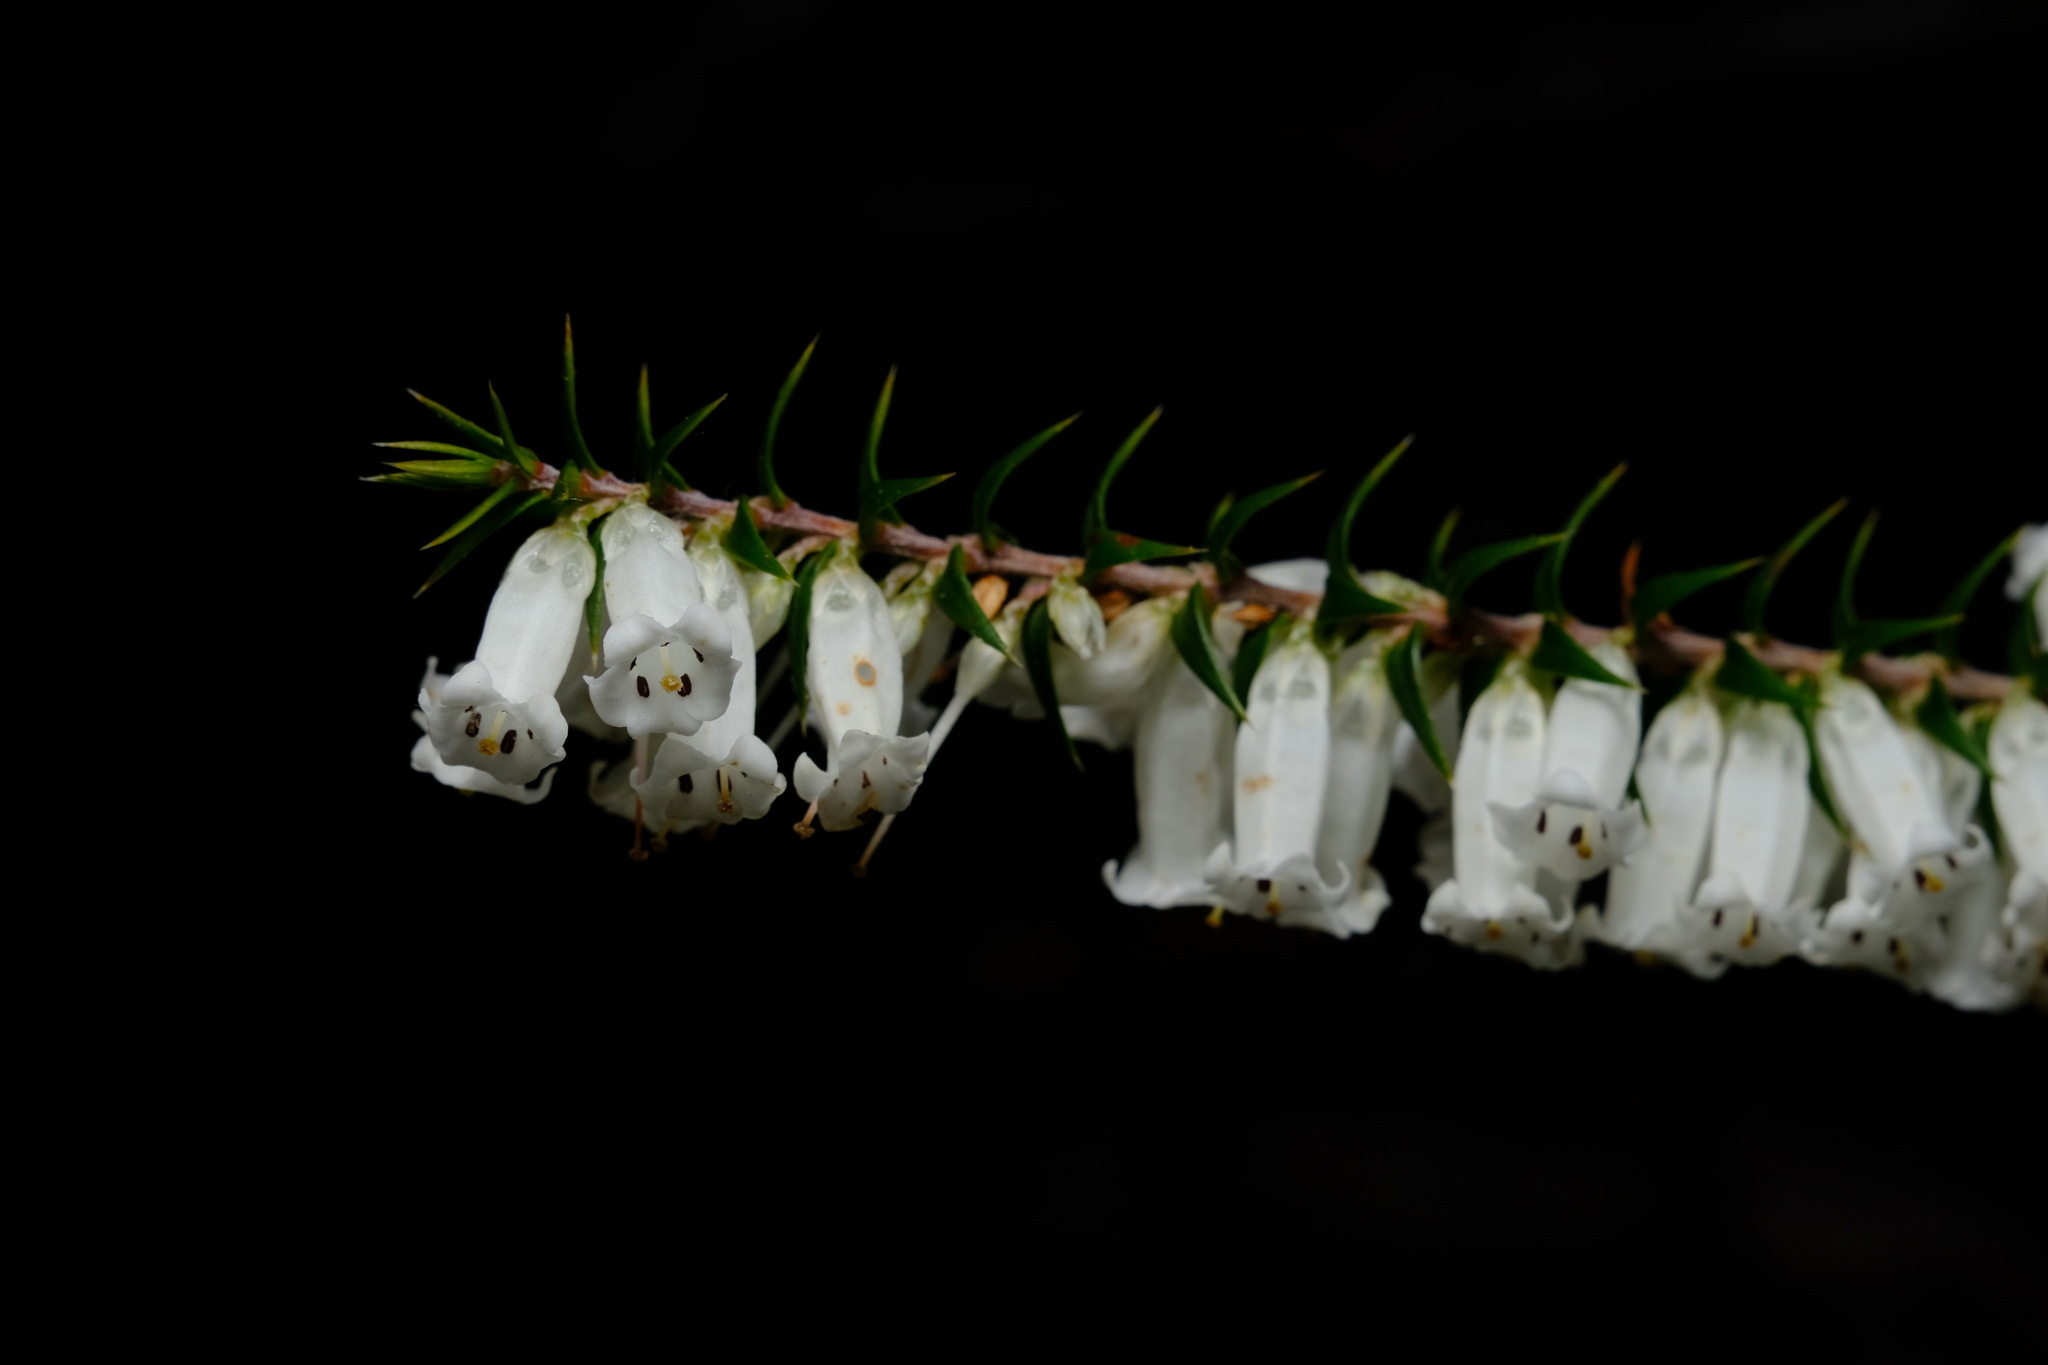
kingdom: Plantae
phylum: Tracheophyta
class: Magnoliopsida
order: Ericales
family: Ericaceae
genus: Epacris
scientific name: Epacris impressa
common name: Common-heath
